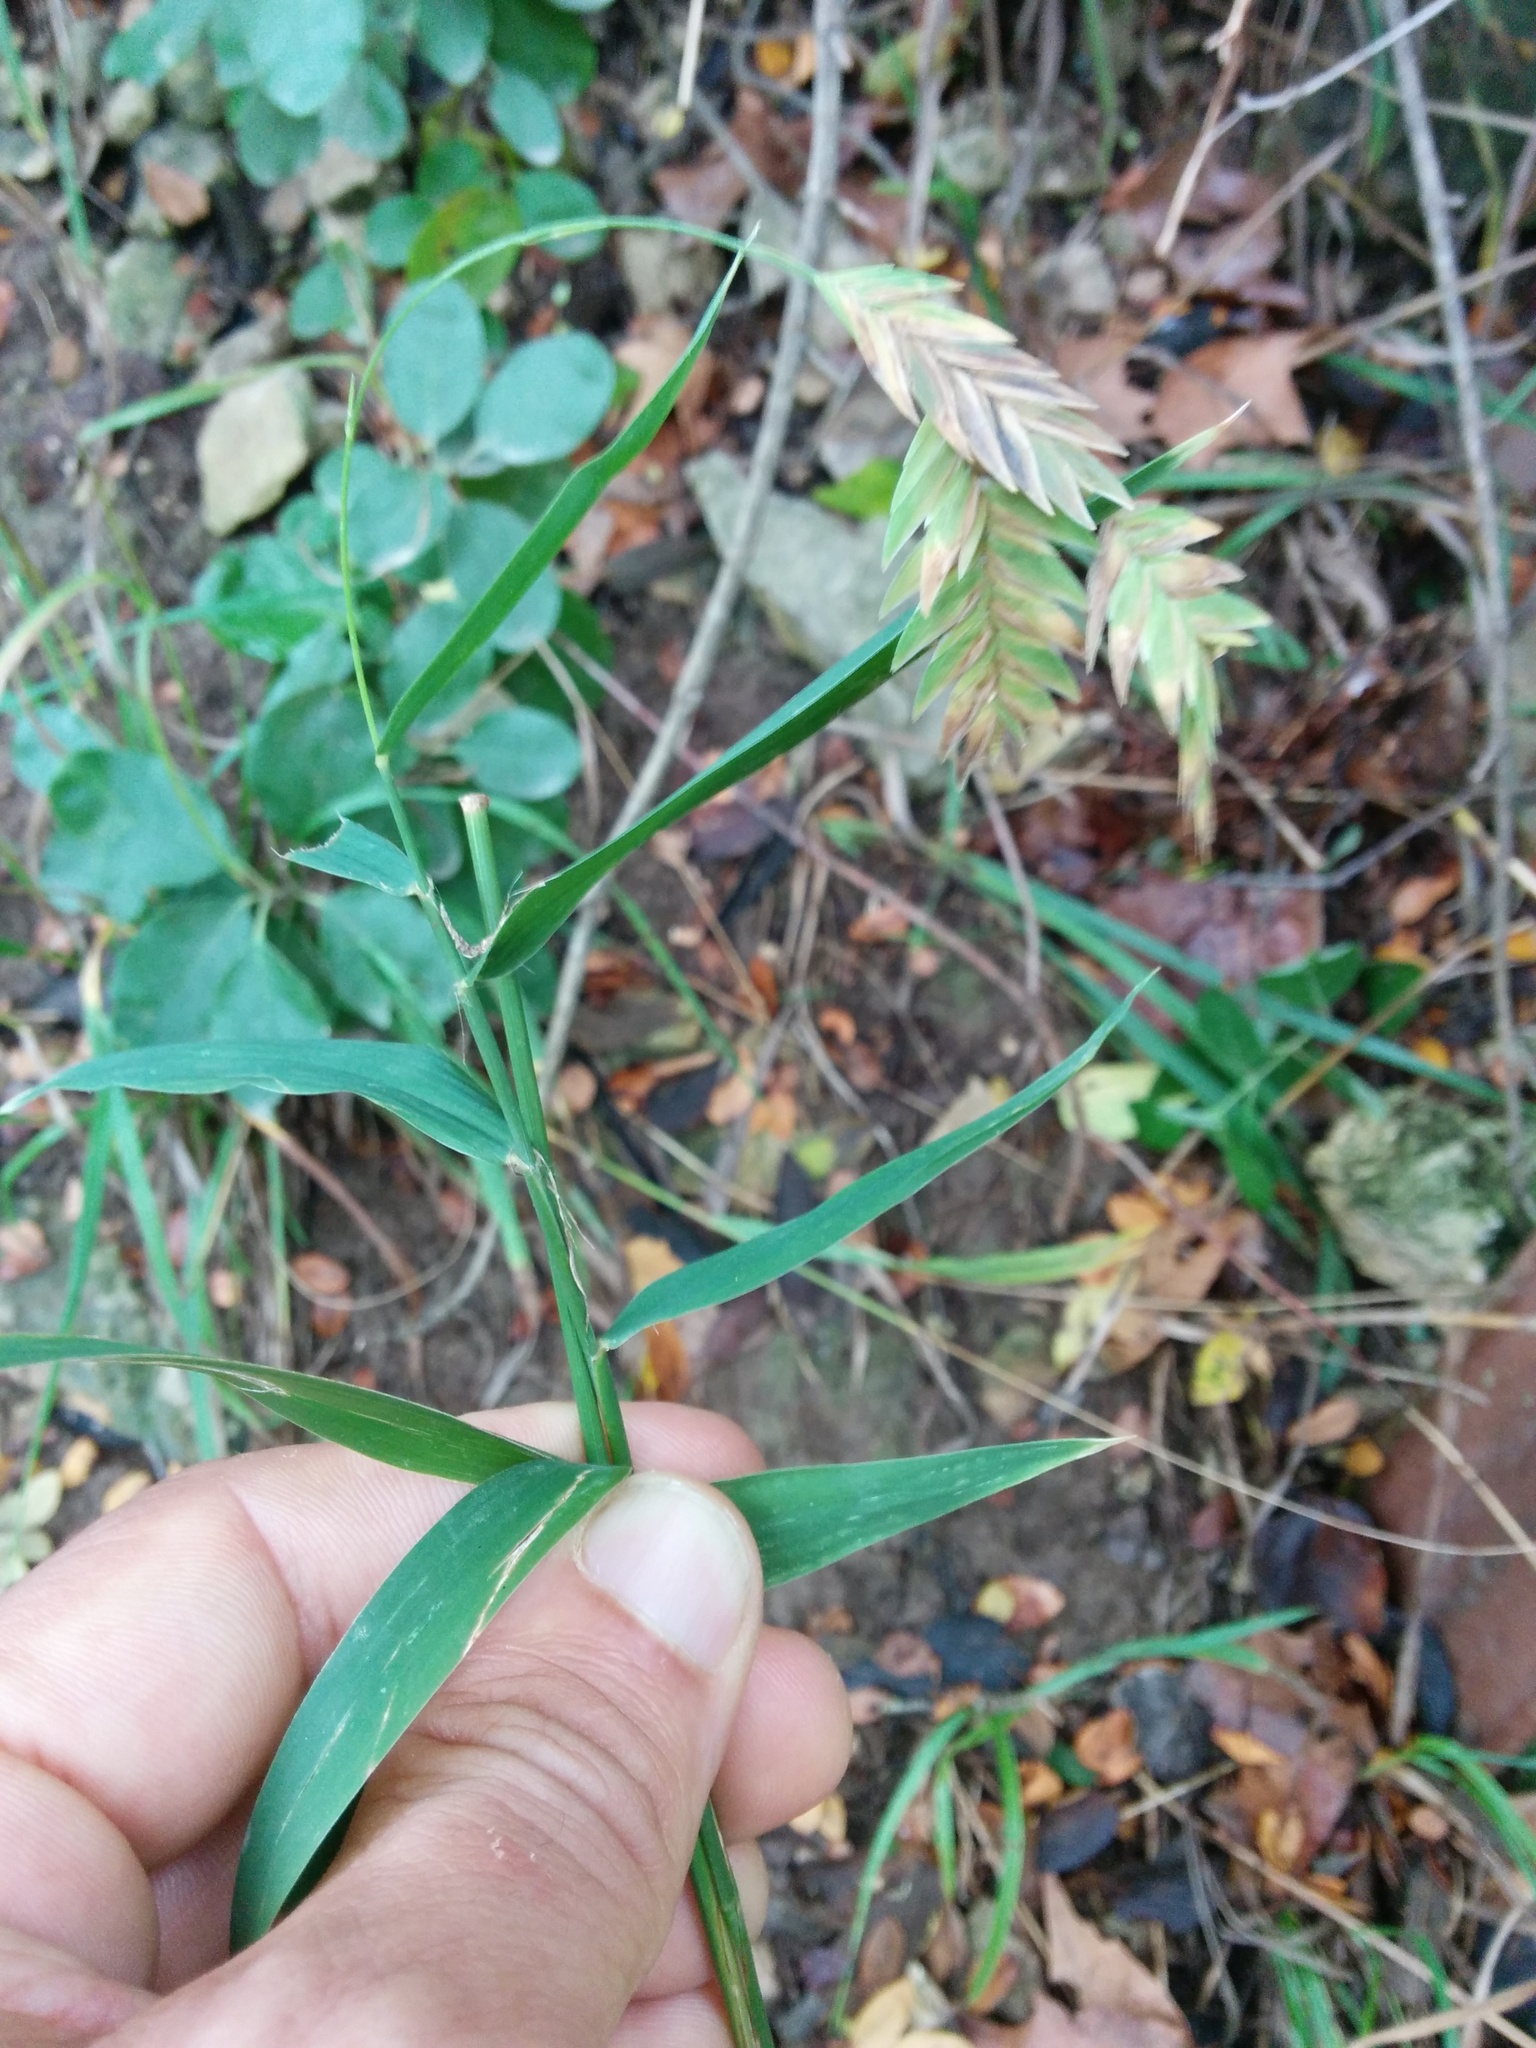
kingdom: Plantae
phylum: Tracheophyta
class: Liliopsida
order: Poales
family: Poaceae
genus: Chasmanthium
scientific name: Chasmanthium latifolium
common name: Broad-leaved chasmanthium
